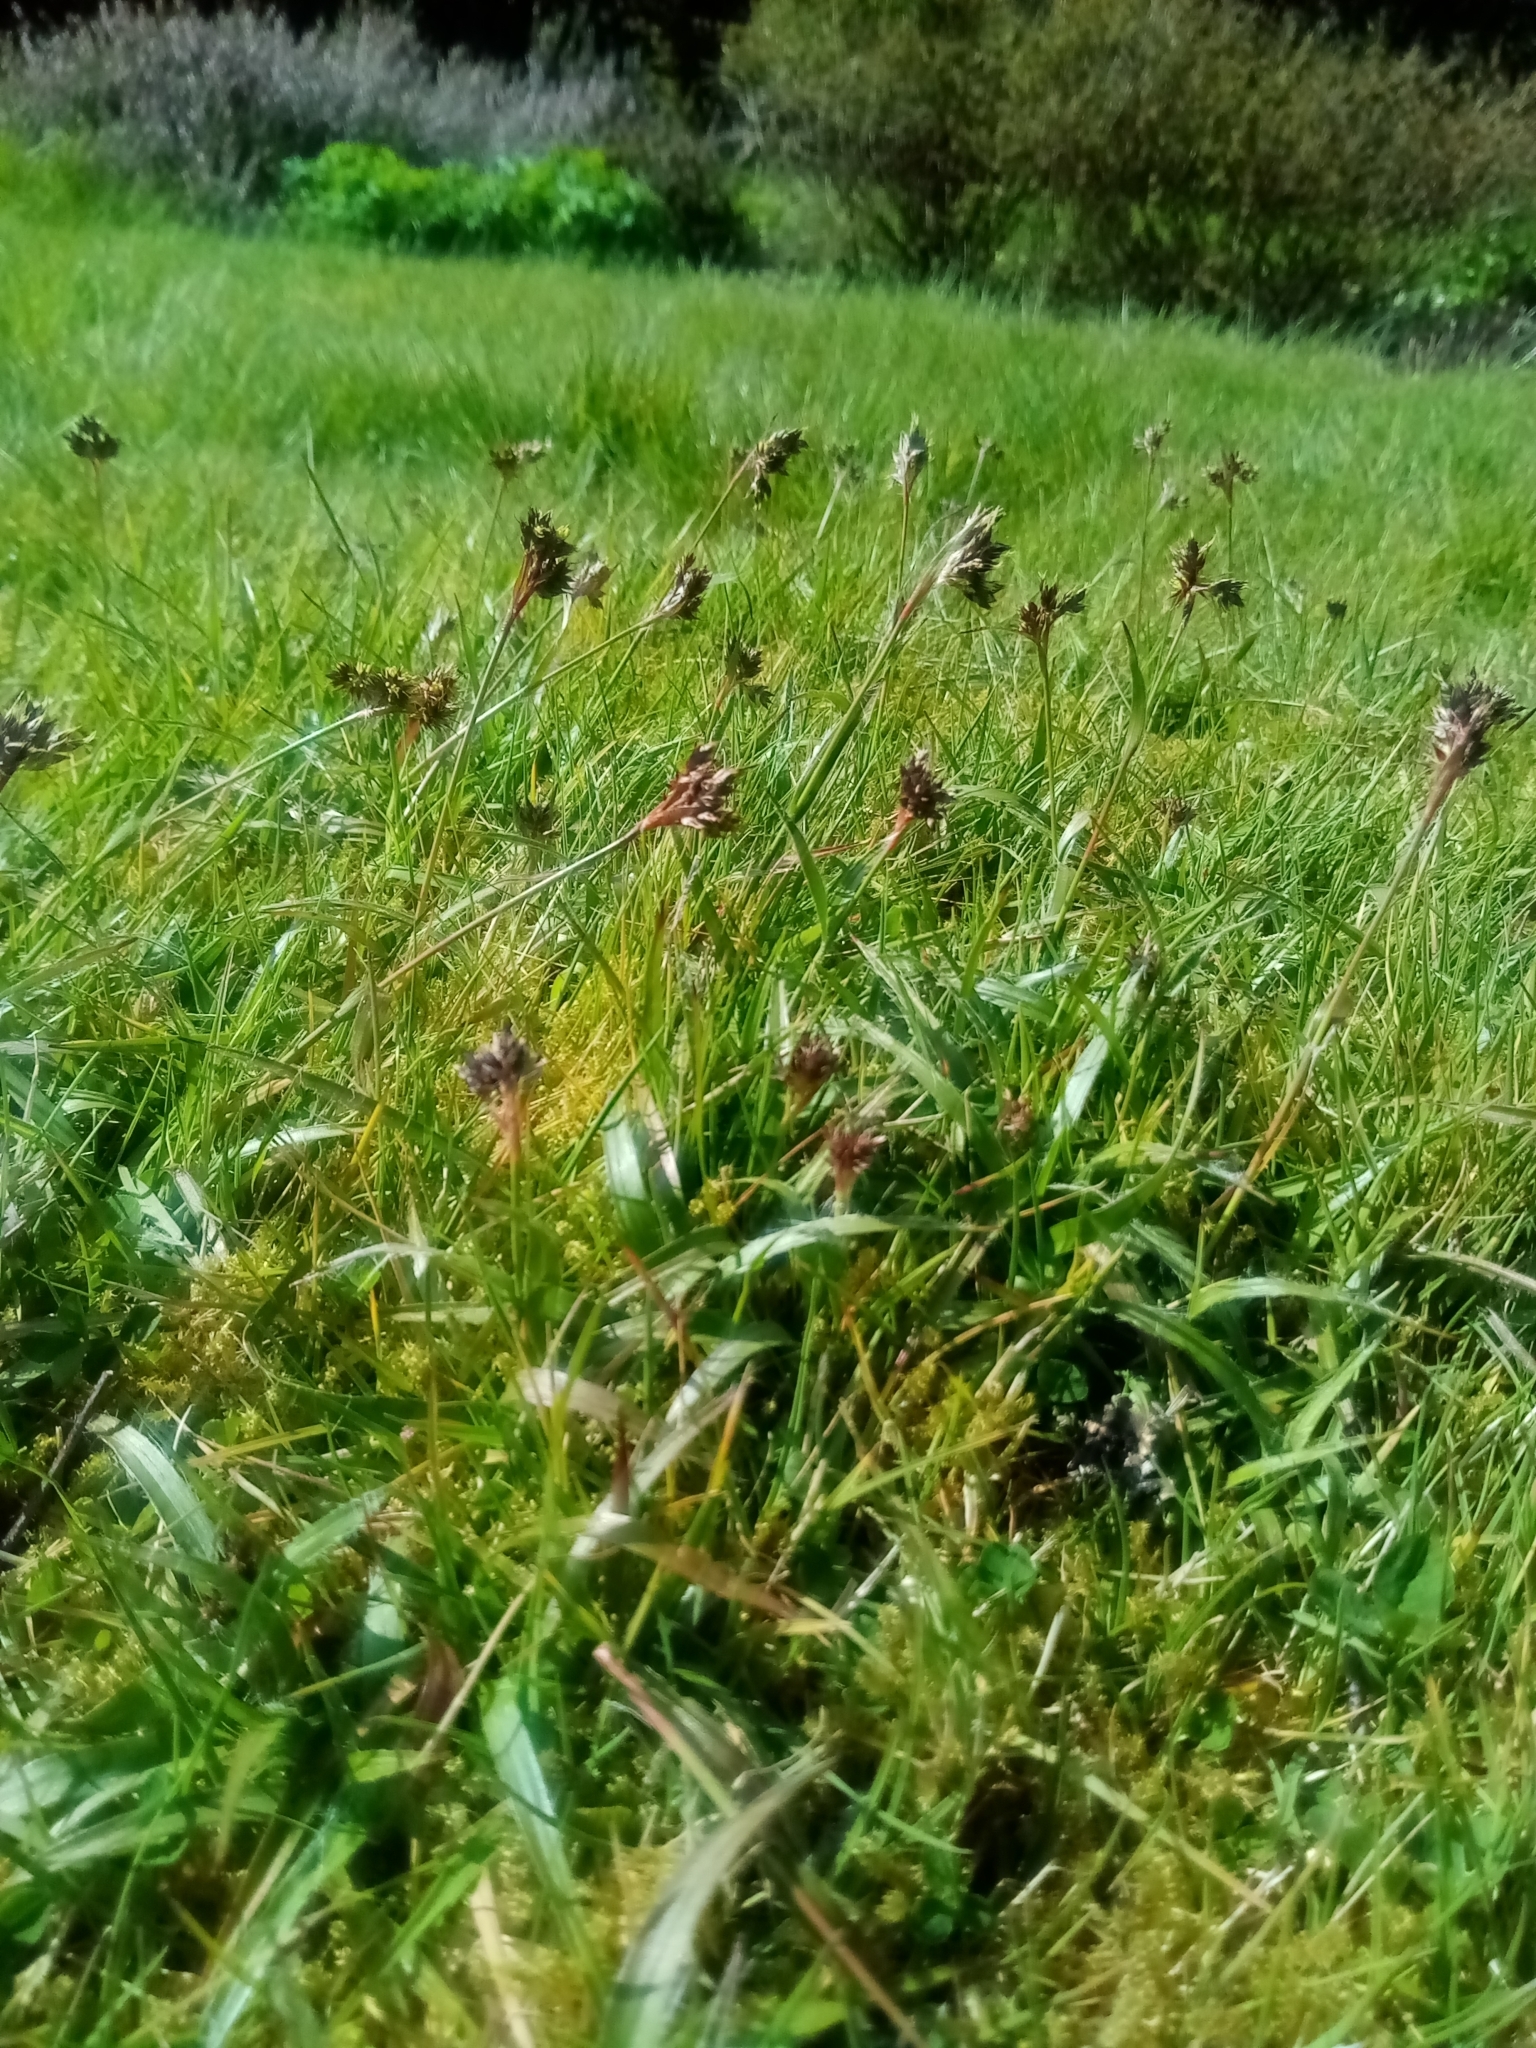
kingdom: Plantae
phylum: Tracheophyta
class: Liliopsida
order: Poales
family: Juncaceae
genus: Luzula
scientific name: Luzula campestris
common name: Field wood-rush
